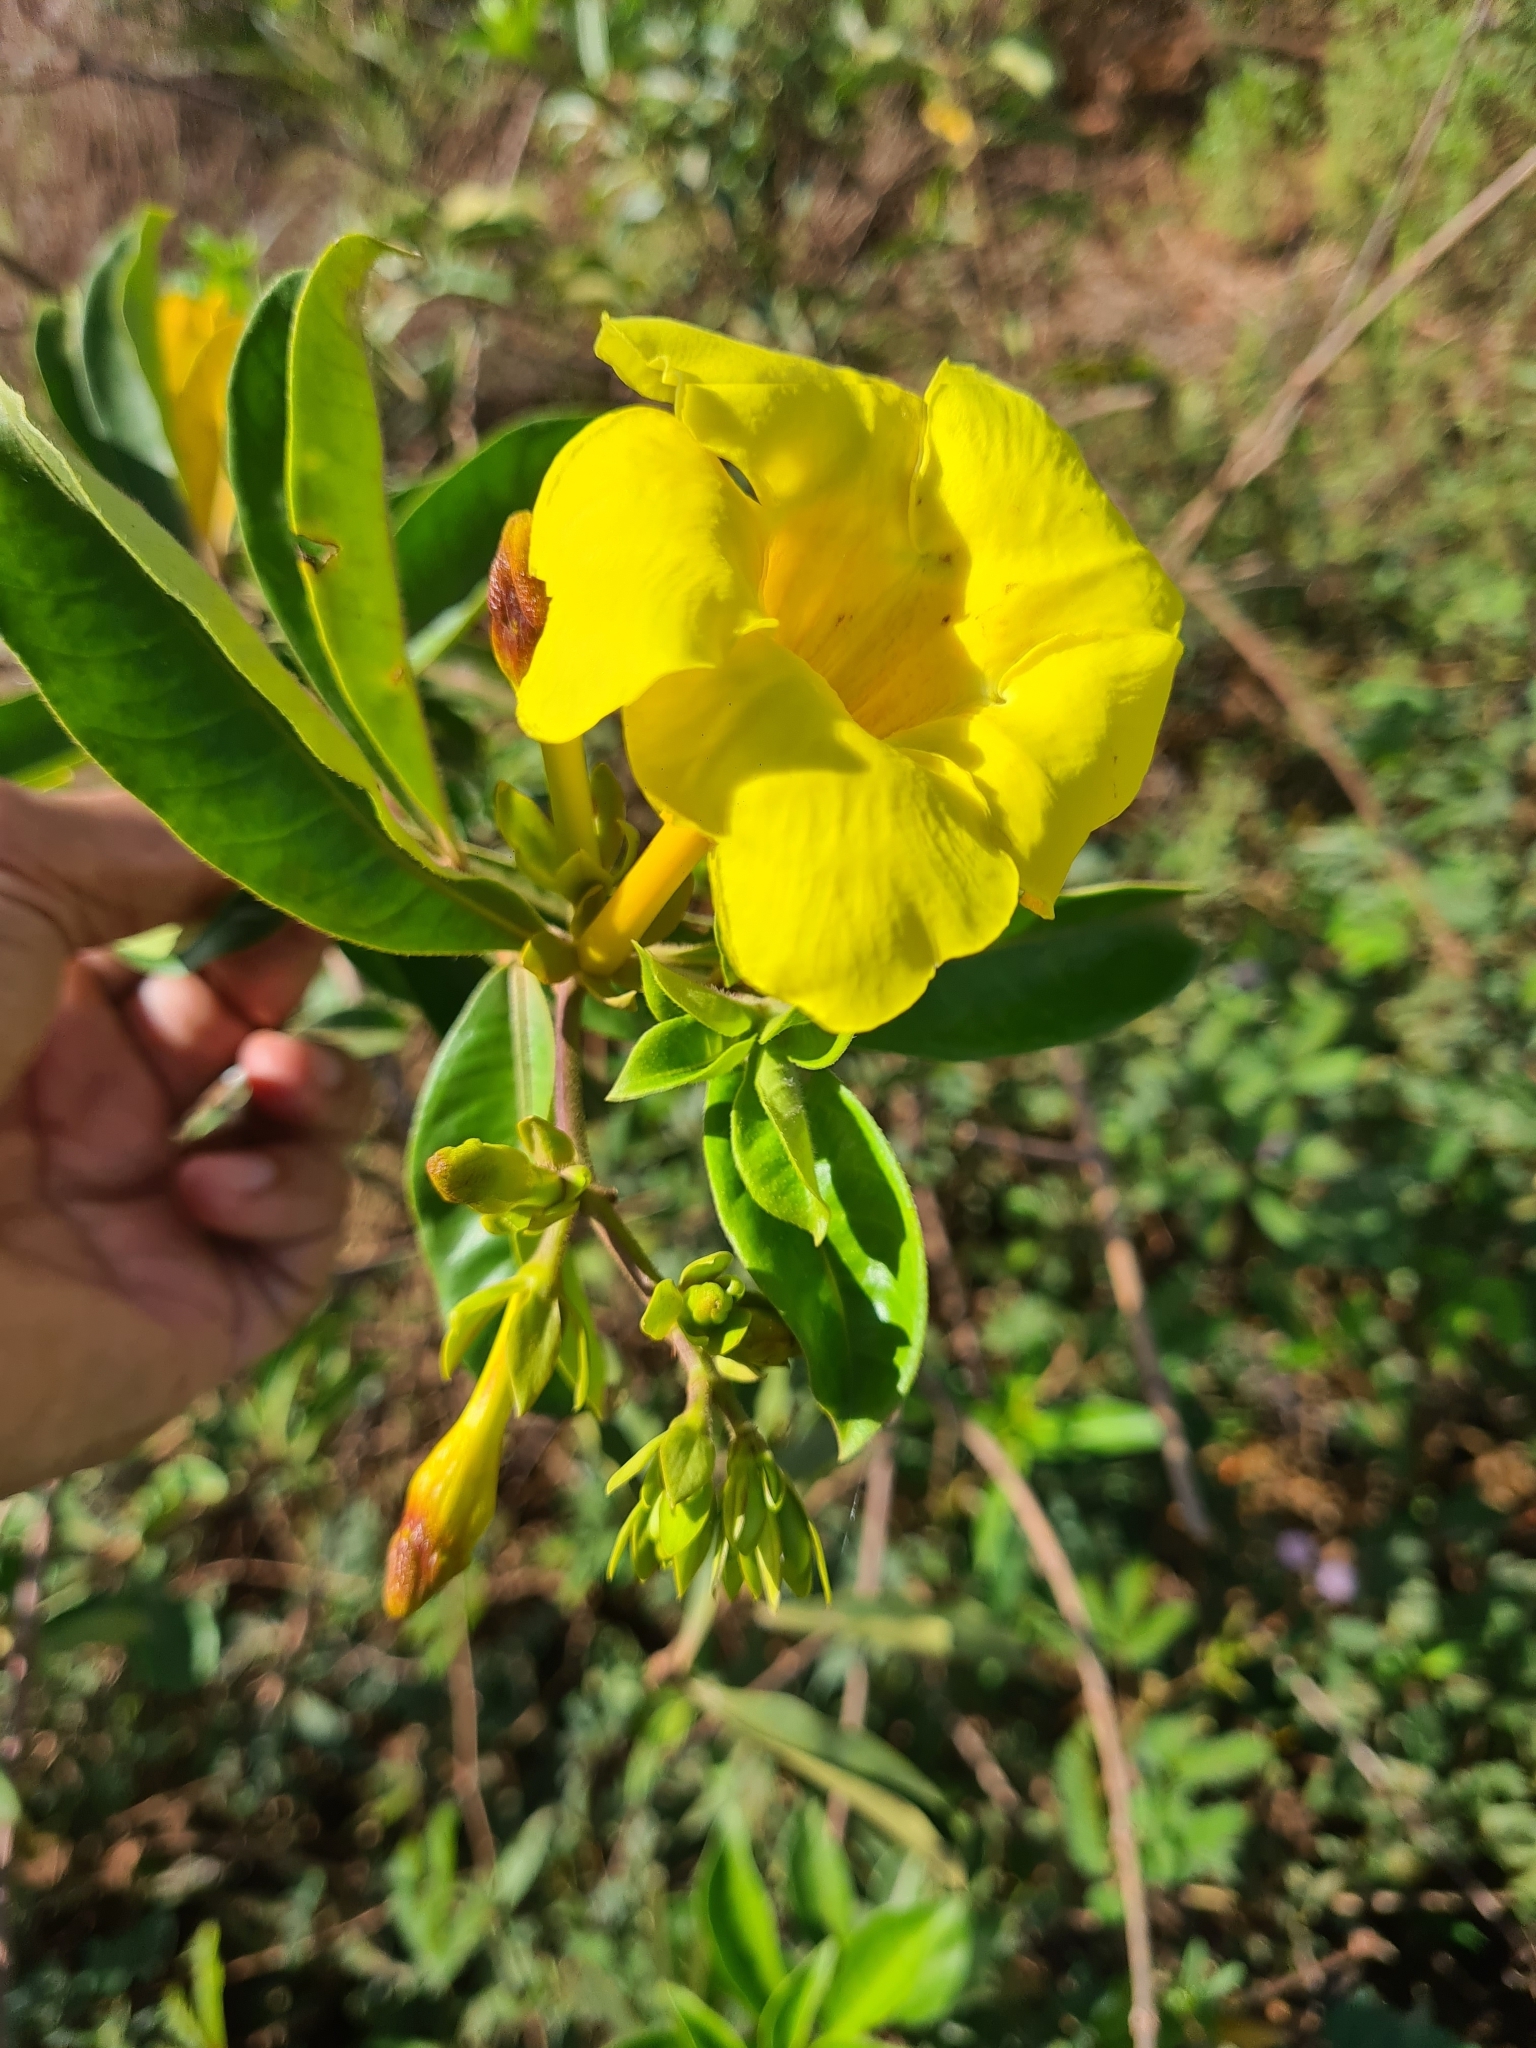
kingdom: Plantae
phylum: Tracheophyta
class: Magnoliopsida
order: Gentianales
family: Apocynaceae
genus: Allamanda
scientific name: Allamanda cathartica
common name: Golden trumpet
